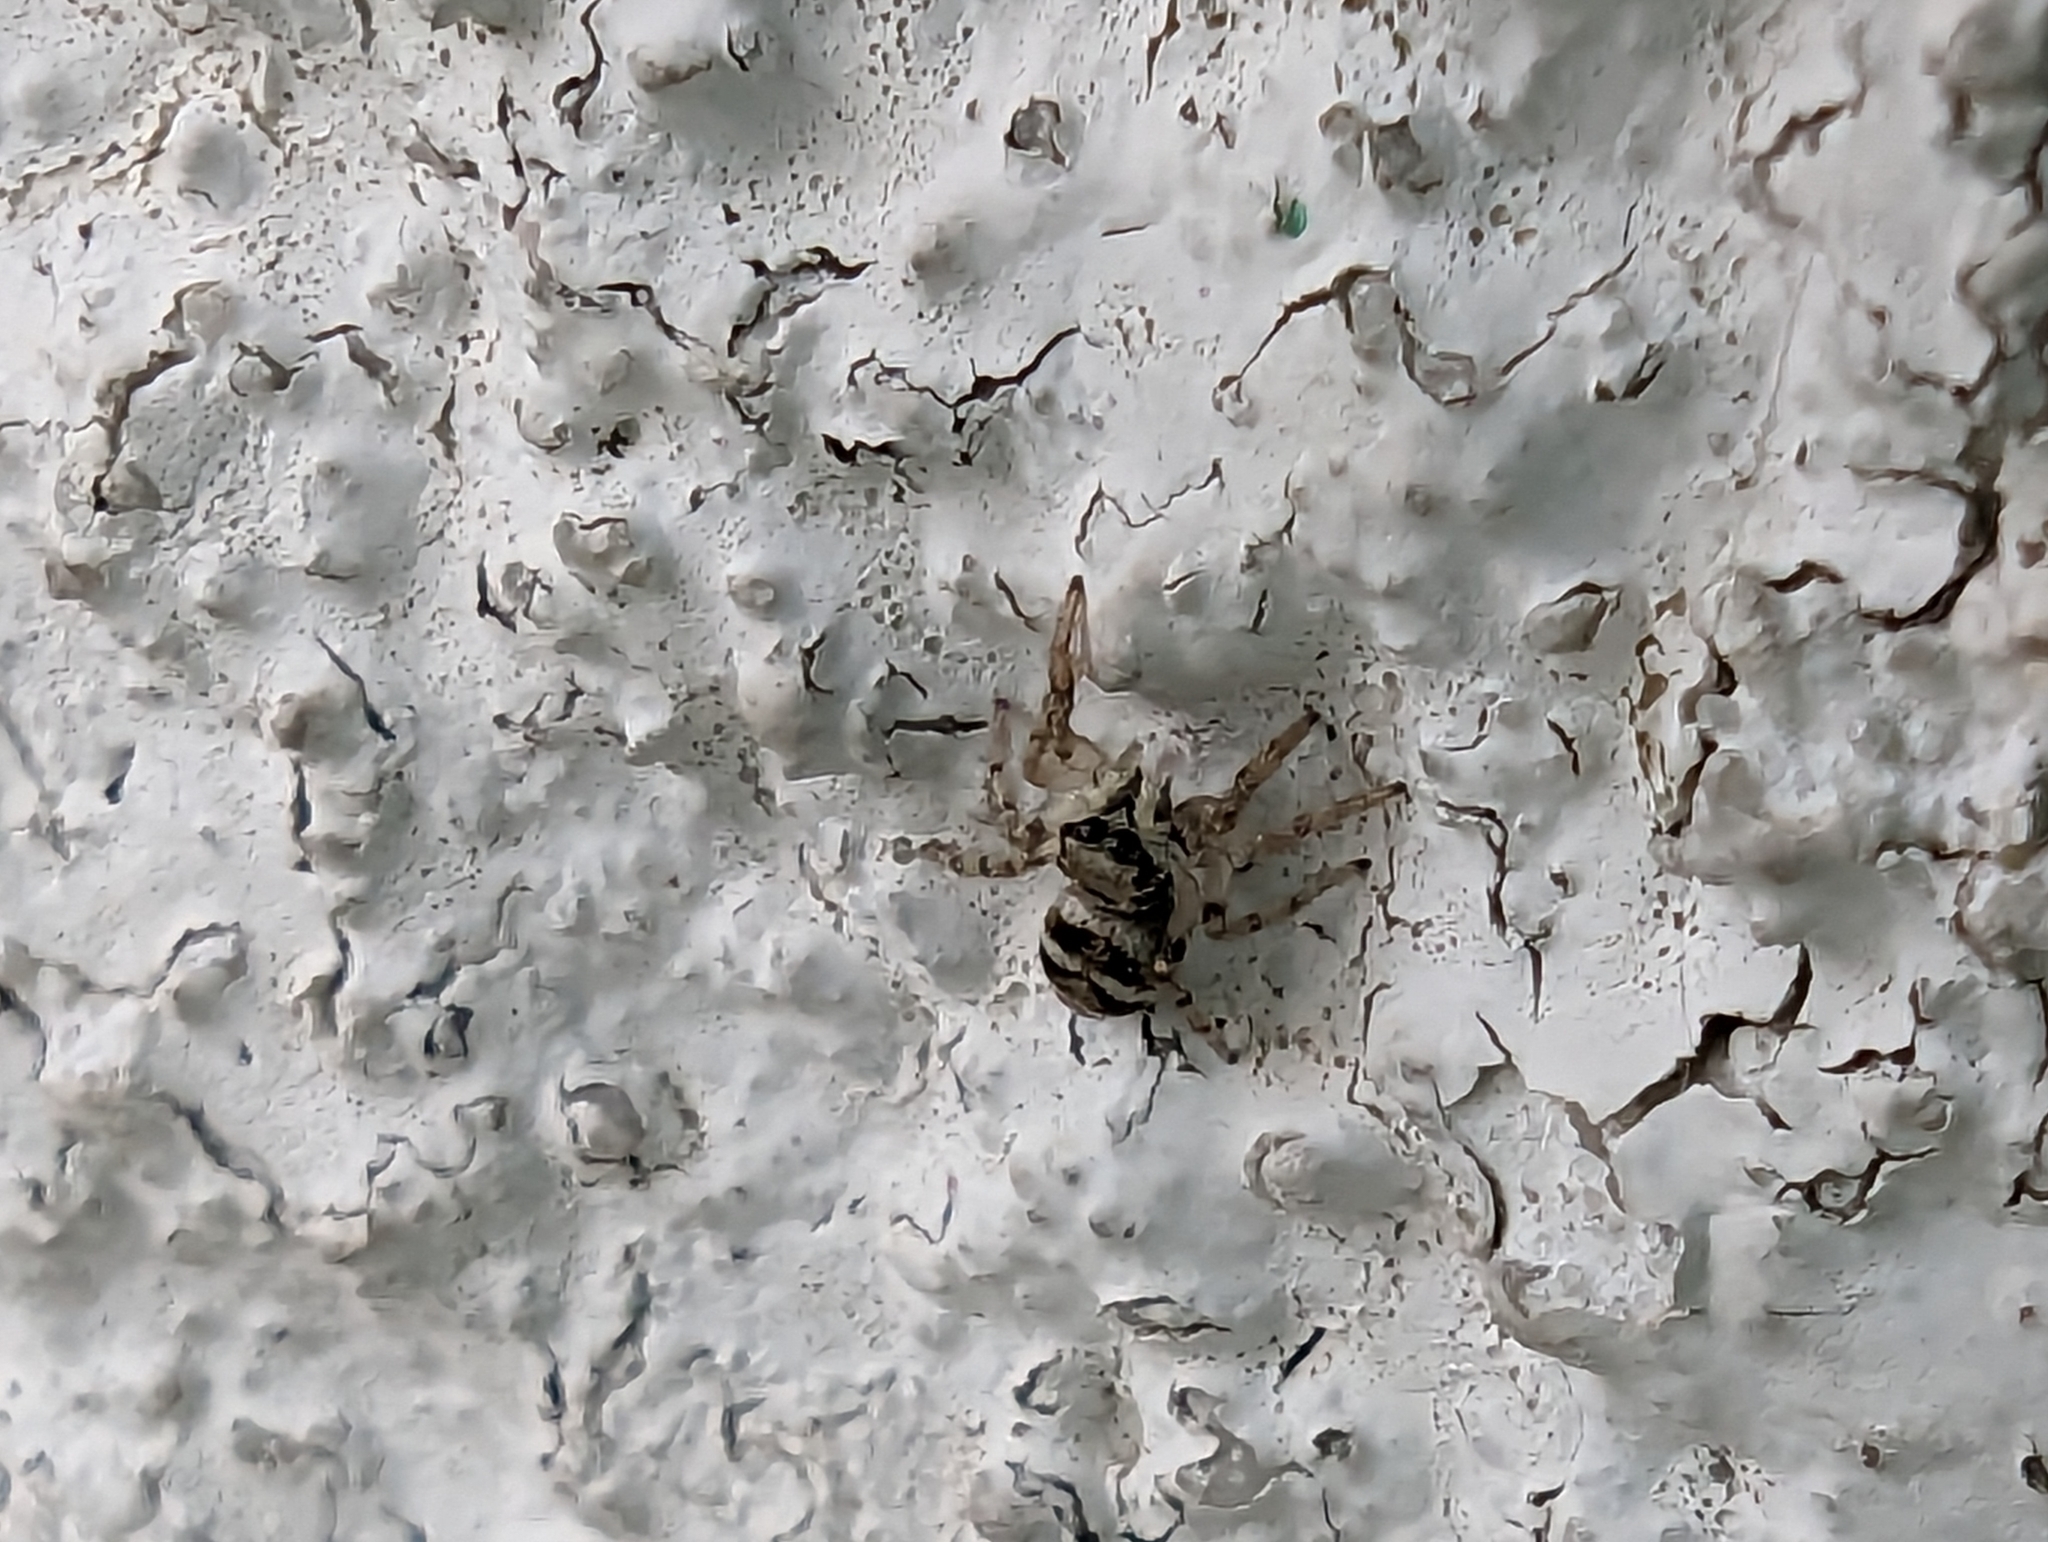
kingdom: Animalia
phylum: Arthropoda
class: Arachnida
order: Araneae
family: Salticidae
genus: Salticus
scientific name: Salticus scenicus
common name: Zebra jumper
